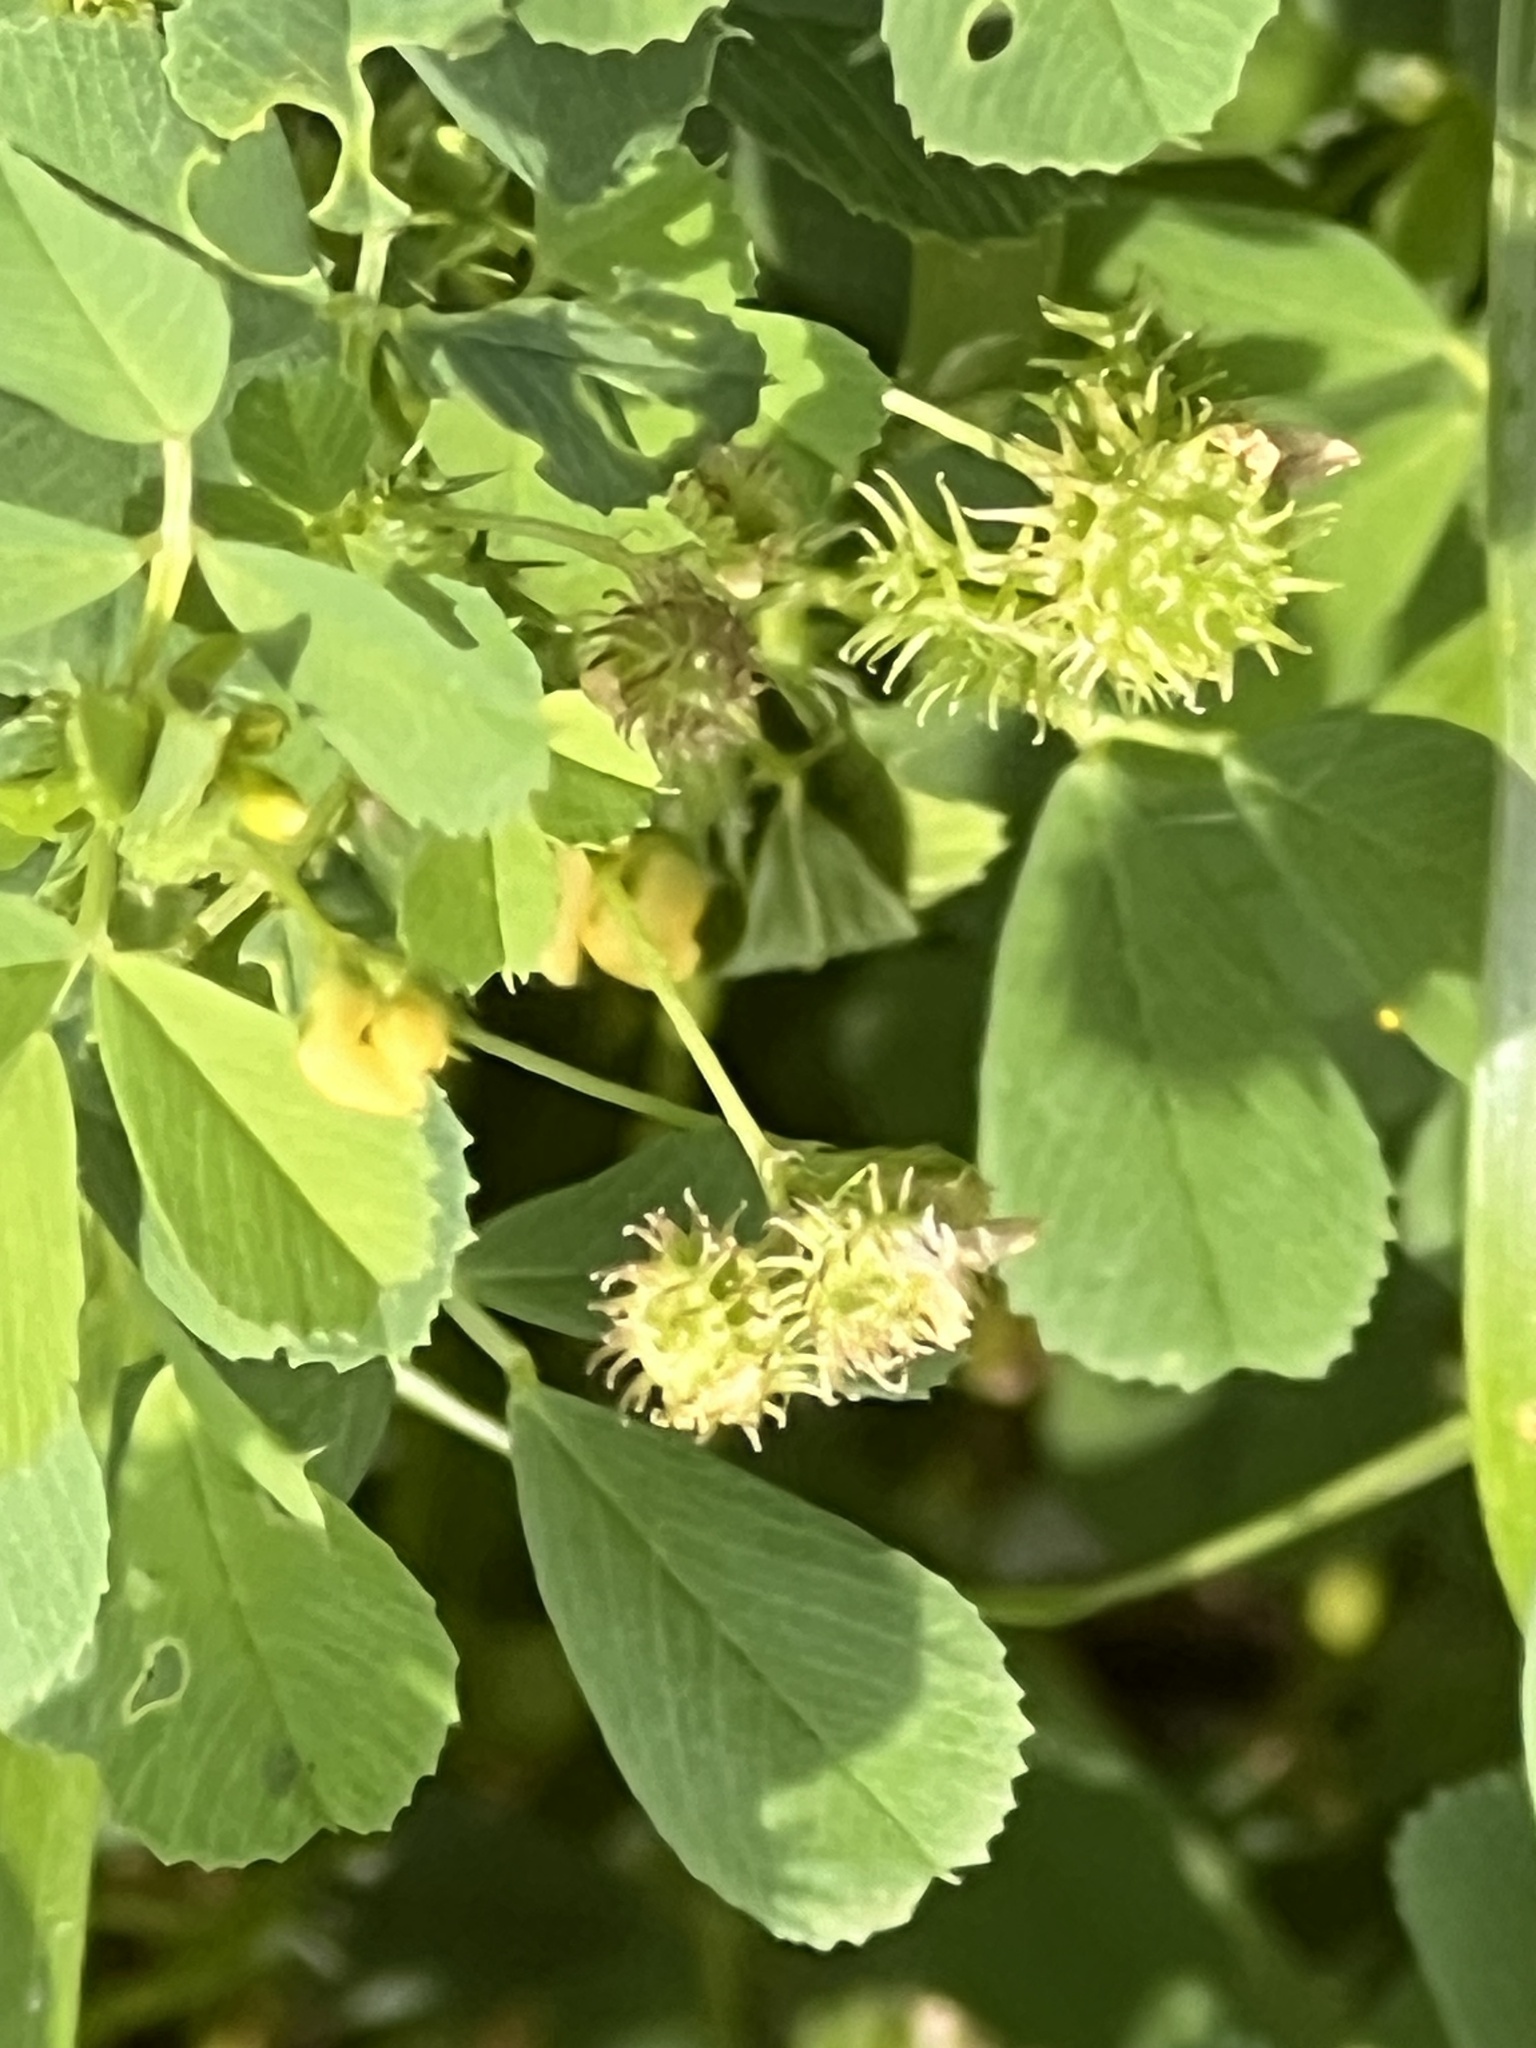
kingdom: Plantae
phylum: Tracheophyta
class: Magnoliopsida
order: Fabales
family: Fabaceae
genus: Medicago
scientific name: Medicago polymorpha
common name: Burclover
